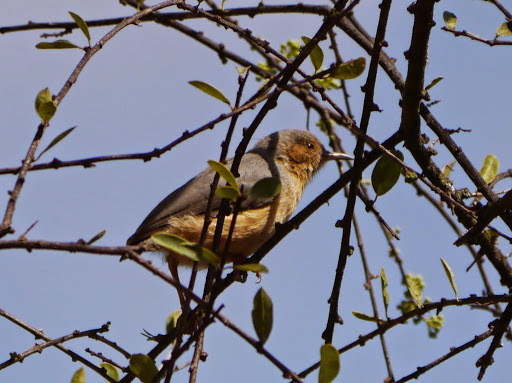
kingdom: Animalia
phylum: Chordata
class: Aves
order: Passeriformes
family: Macrosphenidae
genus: Sylvietta
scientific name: Sylvietta whytii
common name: Red-faced crombec
